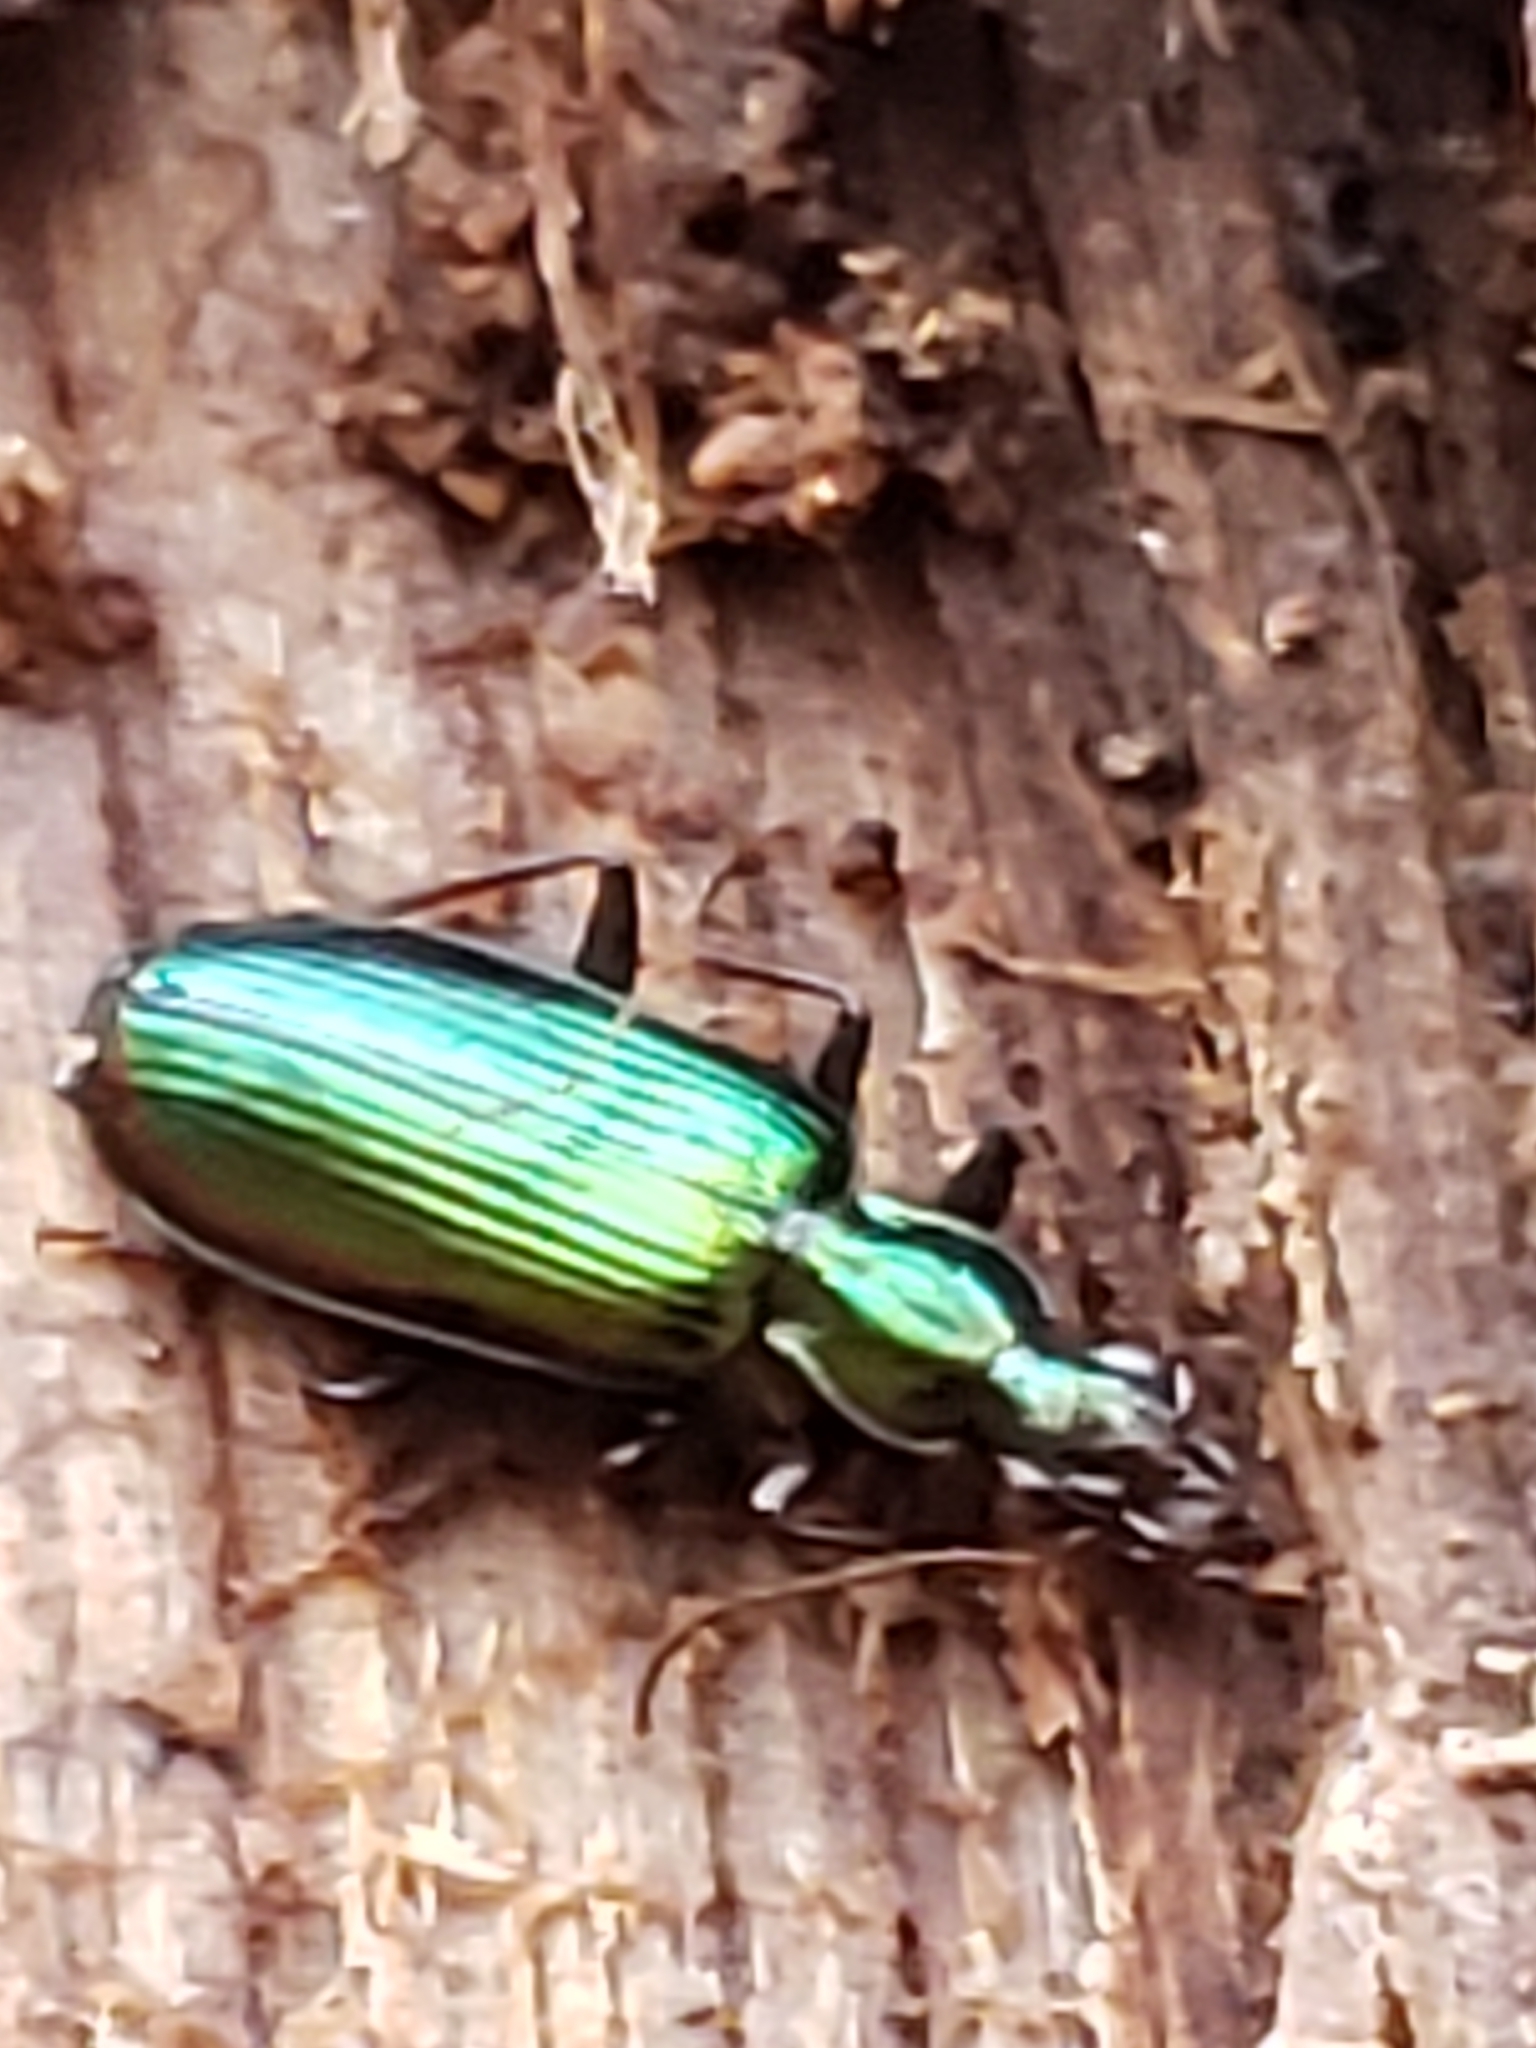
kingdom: Animalia
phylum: Arthropoda
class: Insecta
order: Coleoptera
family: Carabidae
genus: Calleida
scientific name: Calleida viridipennis
